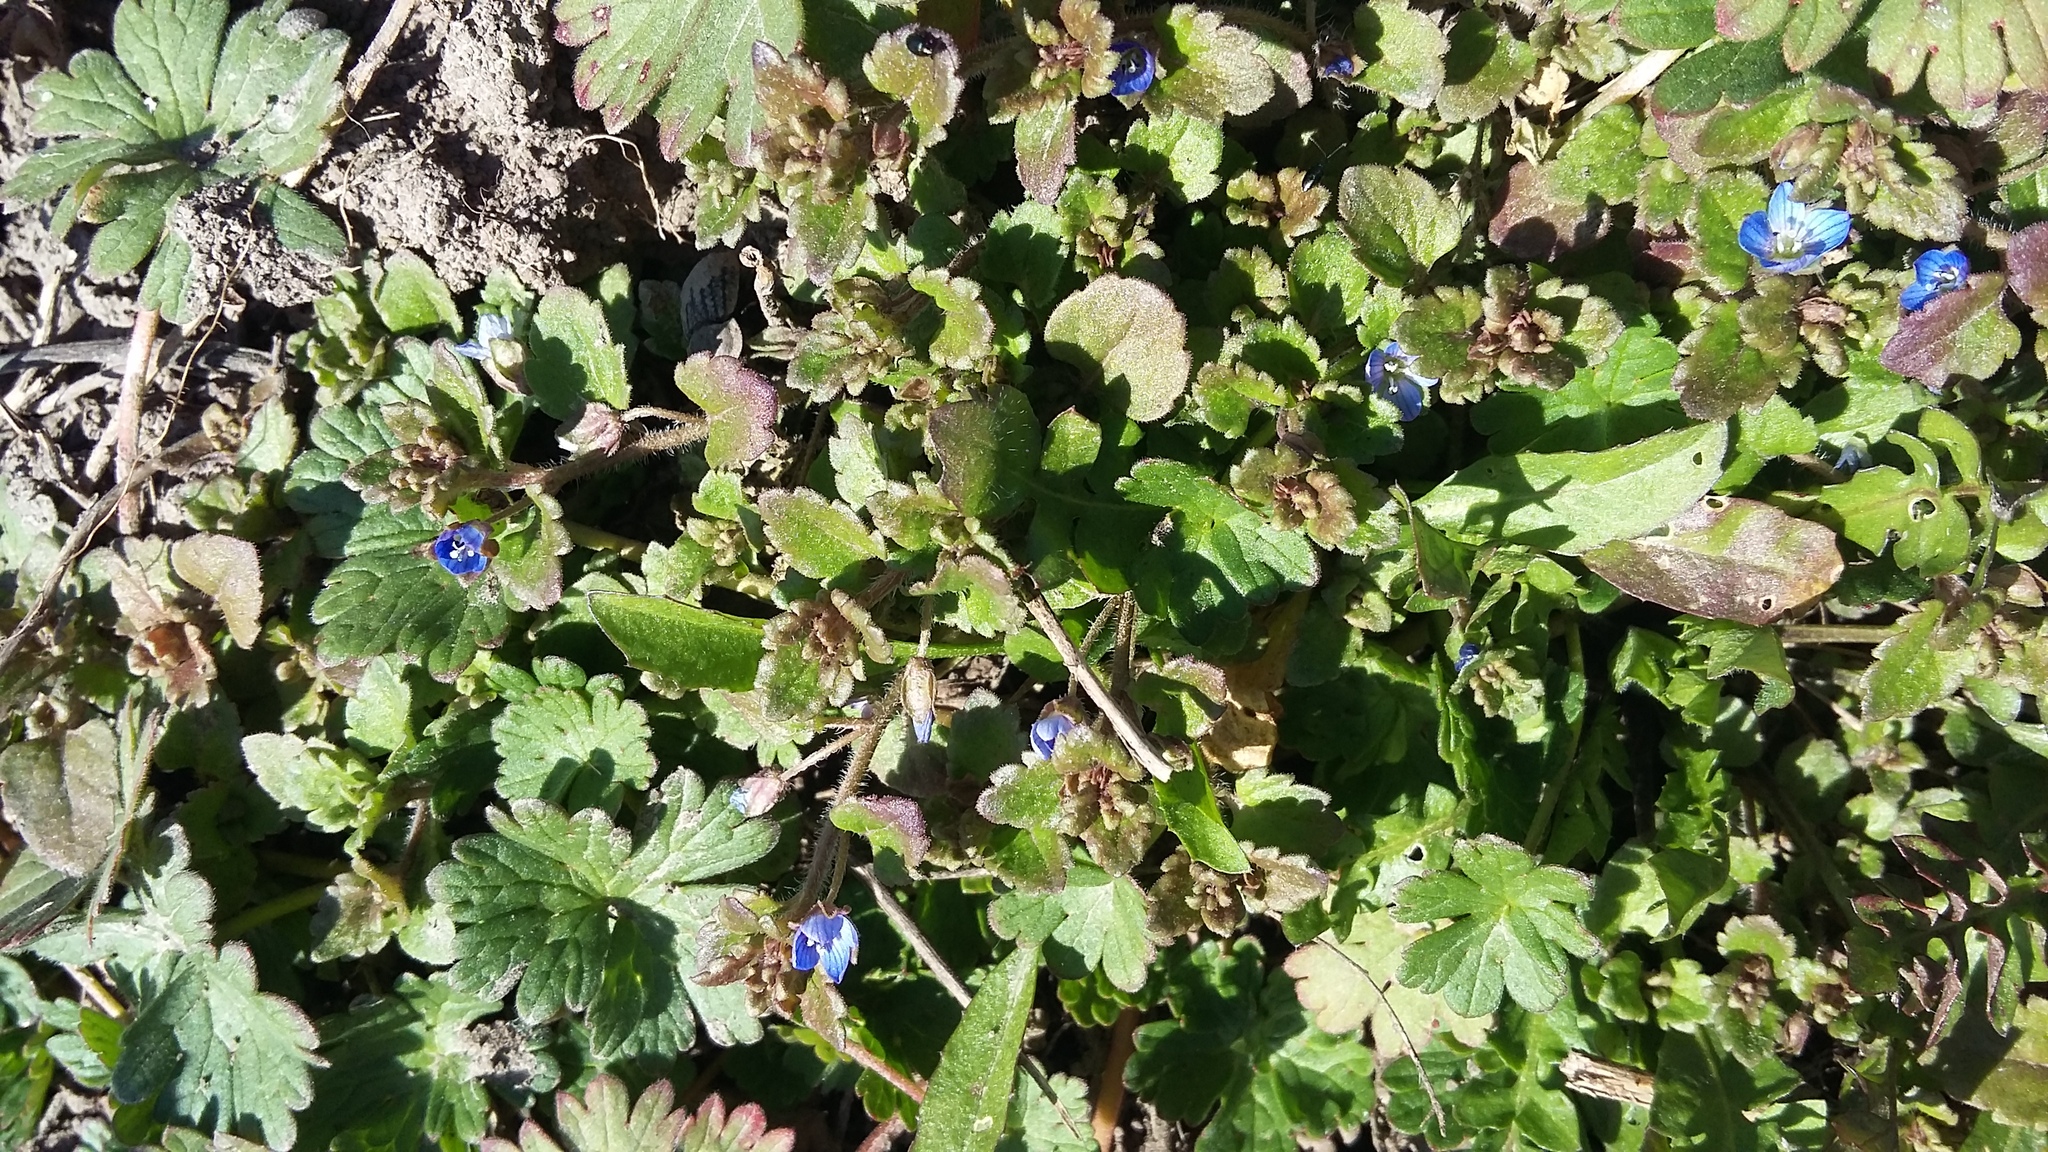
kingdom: Plantae
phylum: Tracheophyta
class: Magnoliopsida
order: Lamiales
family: Plantaginaceae
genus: Veronica
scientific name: Veronica polita
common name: Grey field-speedwell
